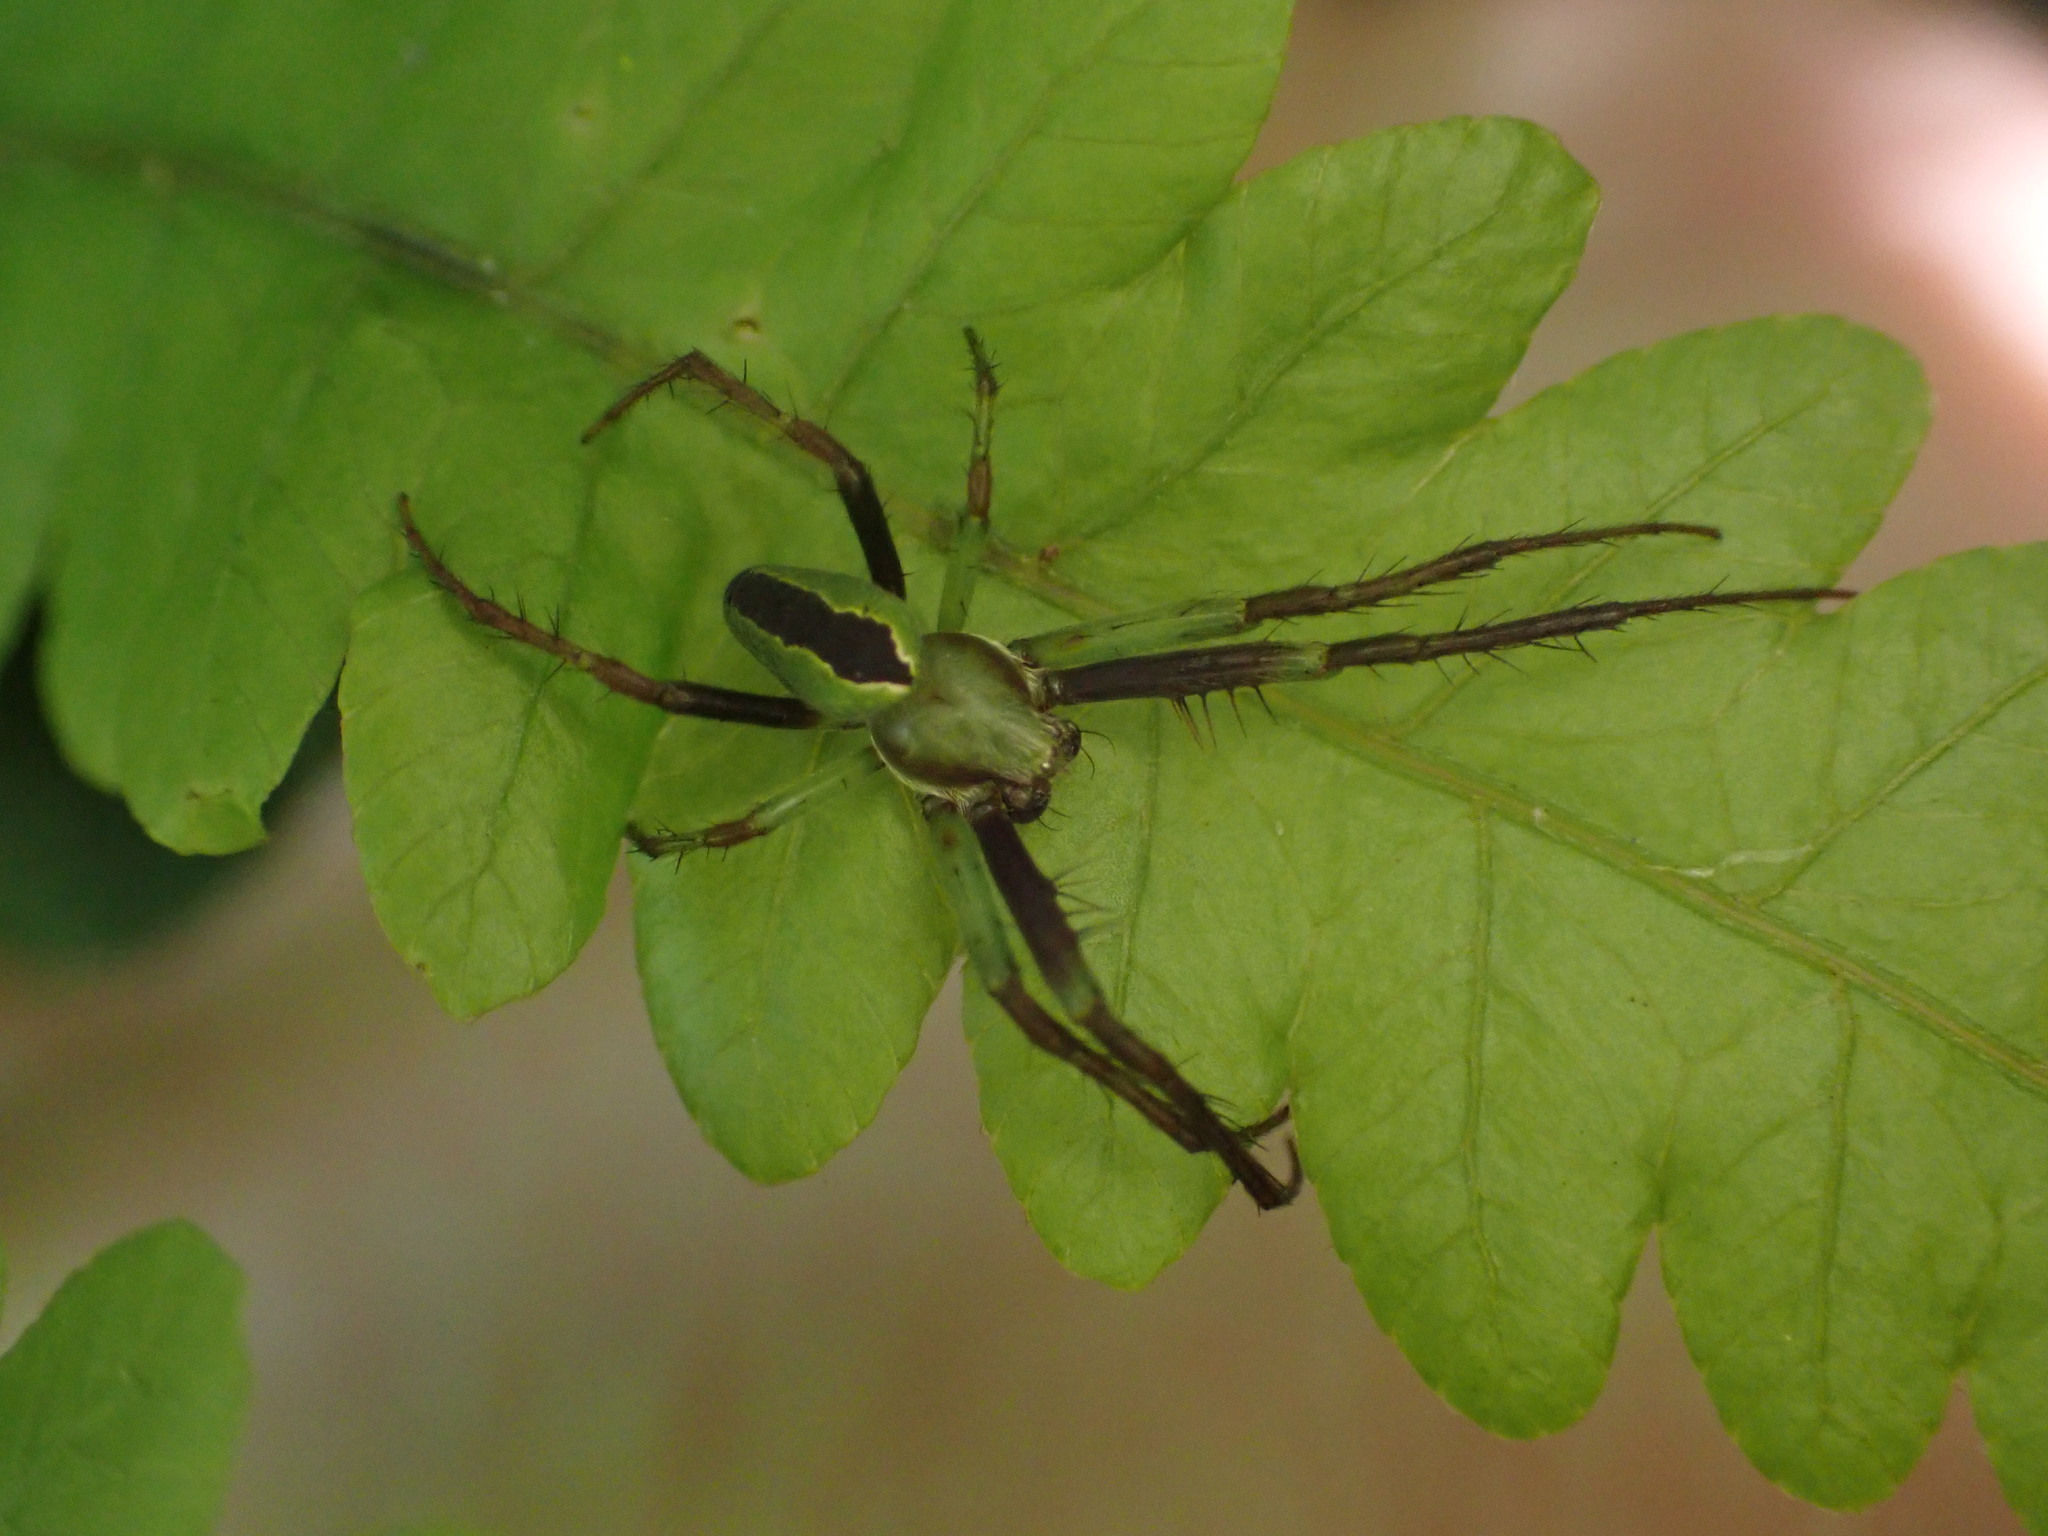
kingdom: Animalia
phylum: Arthropoda
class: Arachnida
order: Araneae
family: Araneidae
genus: Colaranea
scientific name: Colaranea melanoviridis
